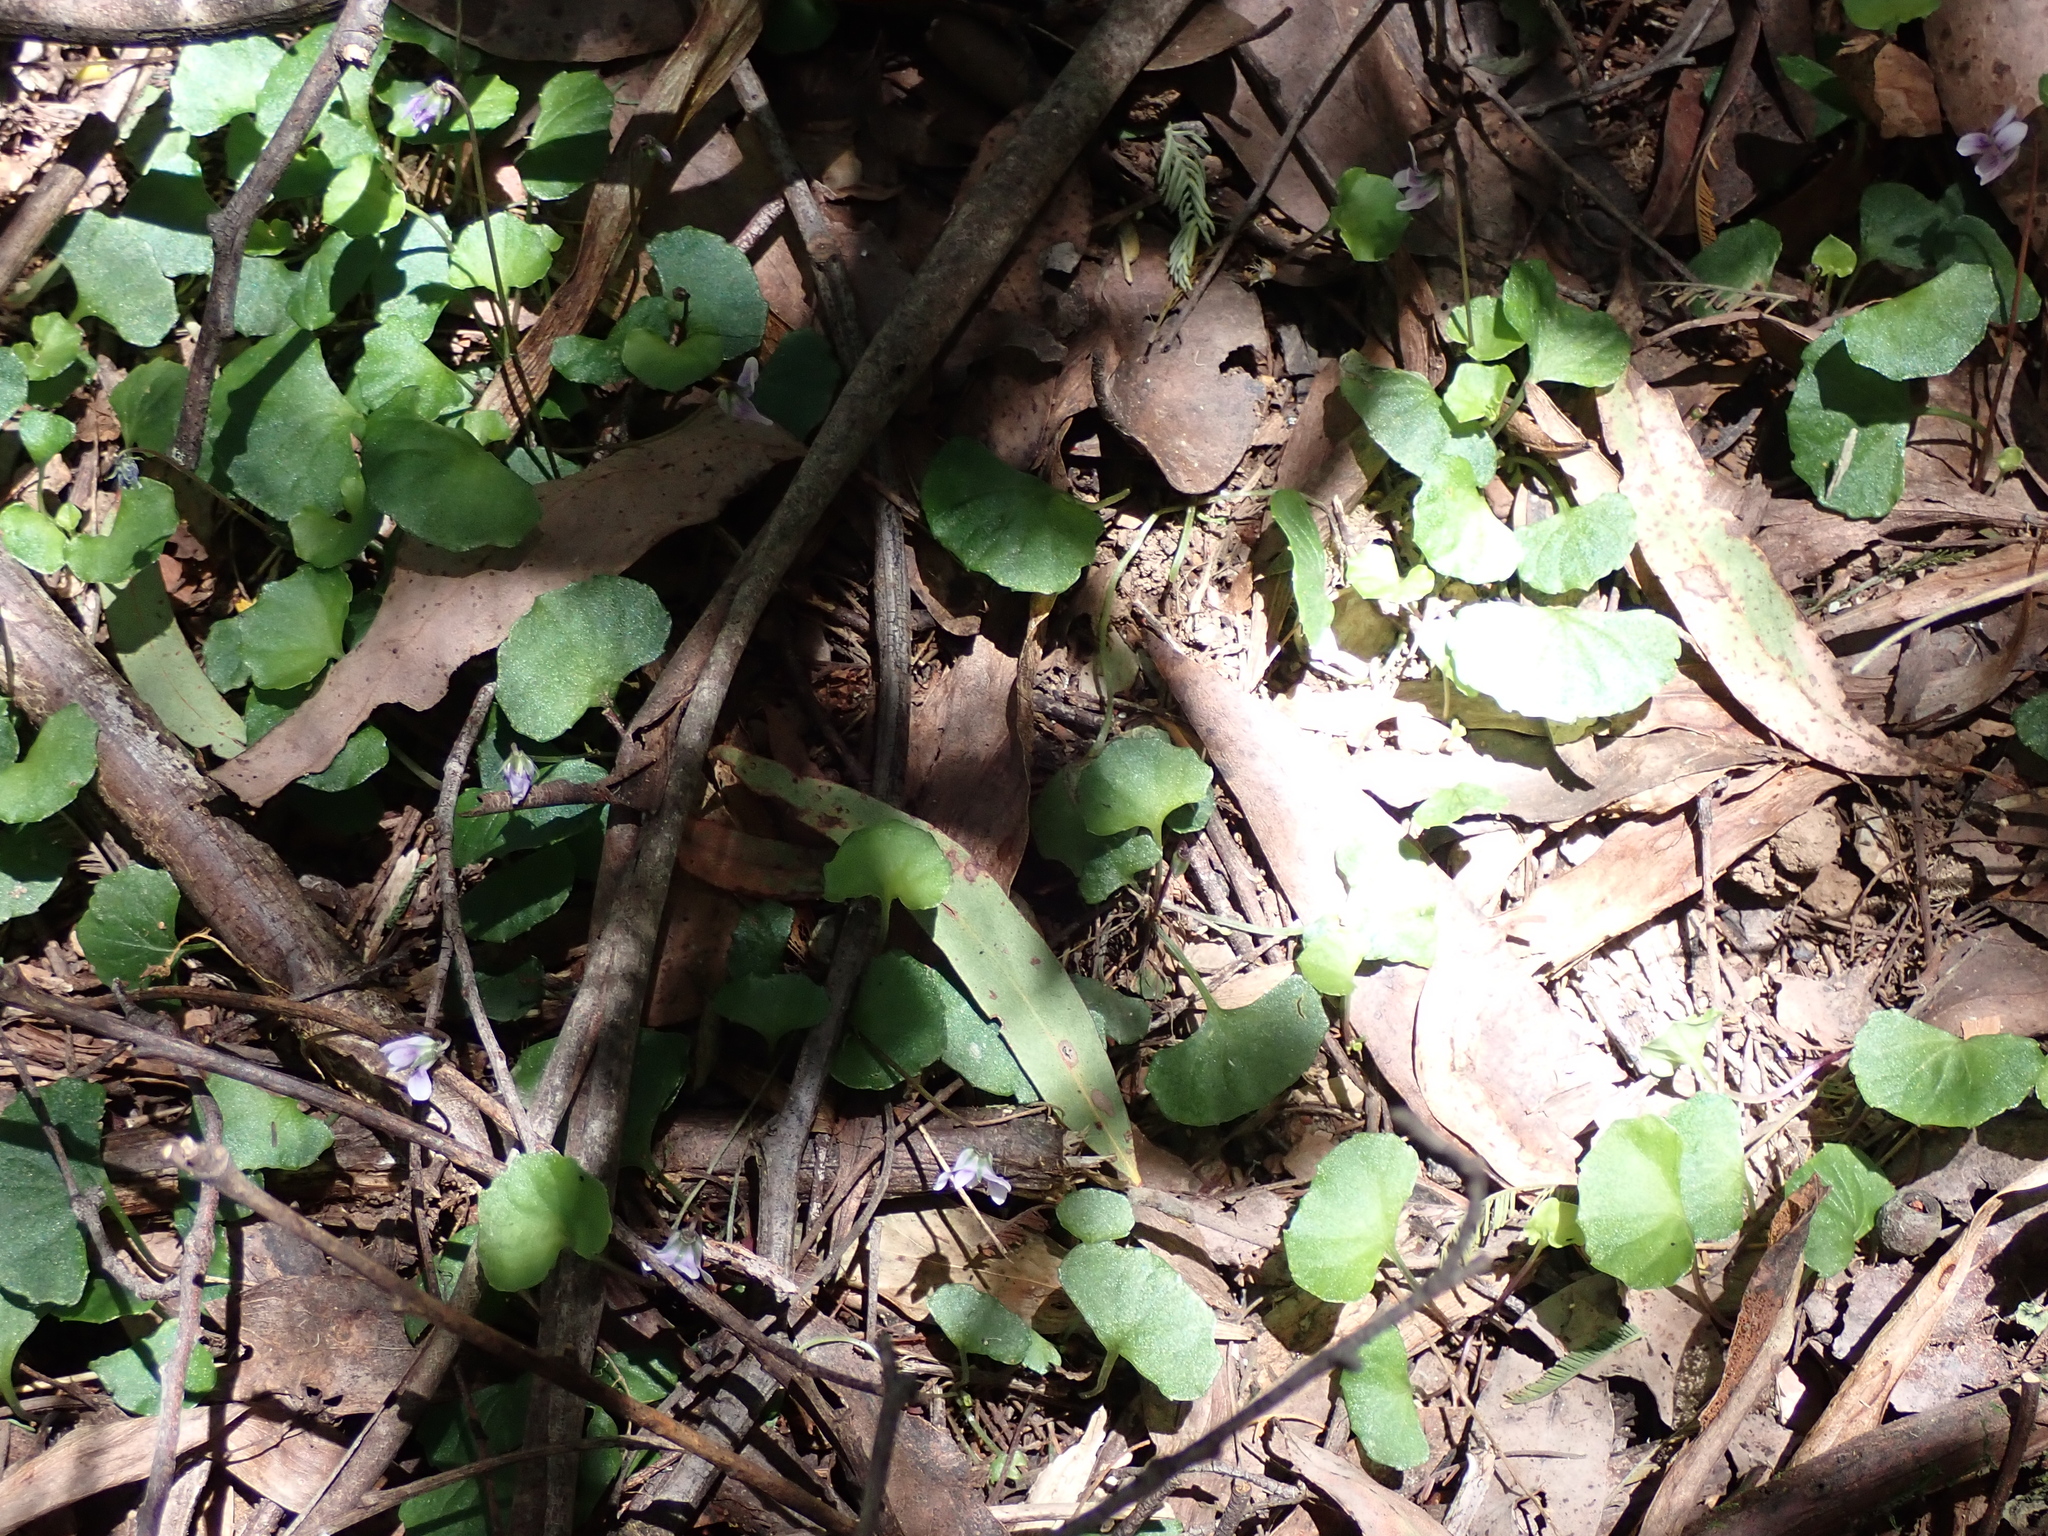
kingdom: Plantae
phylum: Tracheophyta
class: Magnoliopsida
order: Malpighiales
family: Violaceae
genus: Viola
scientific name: Viola hederacea
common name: Australian violet
